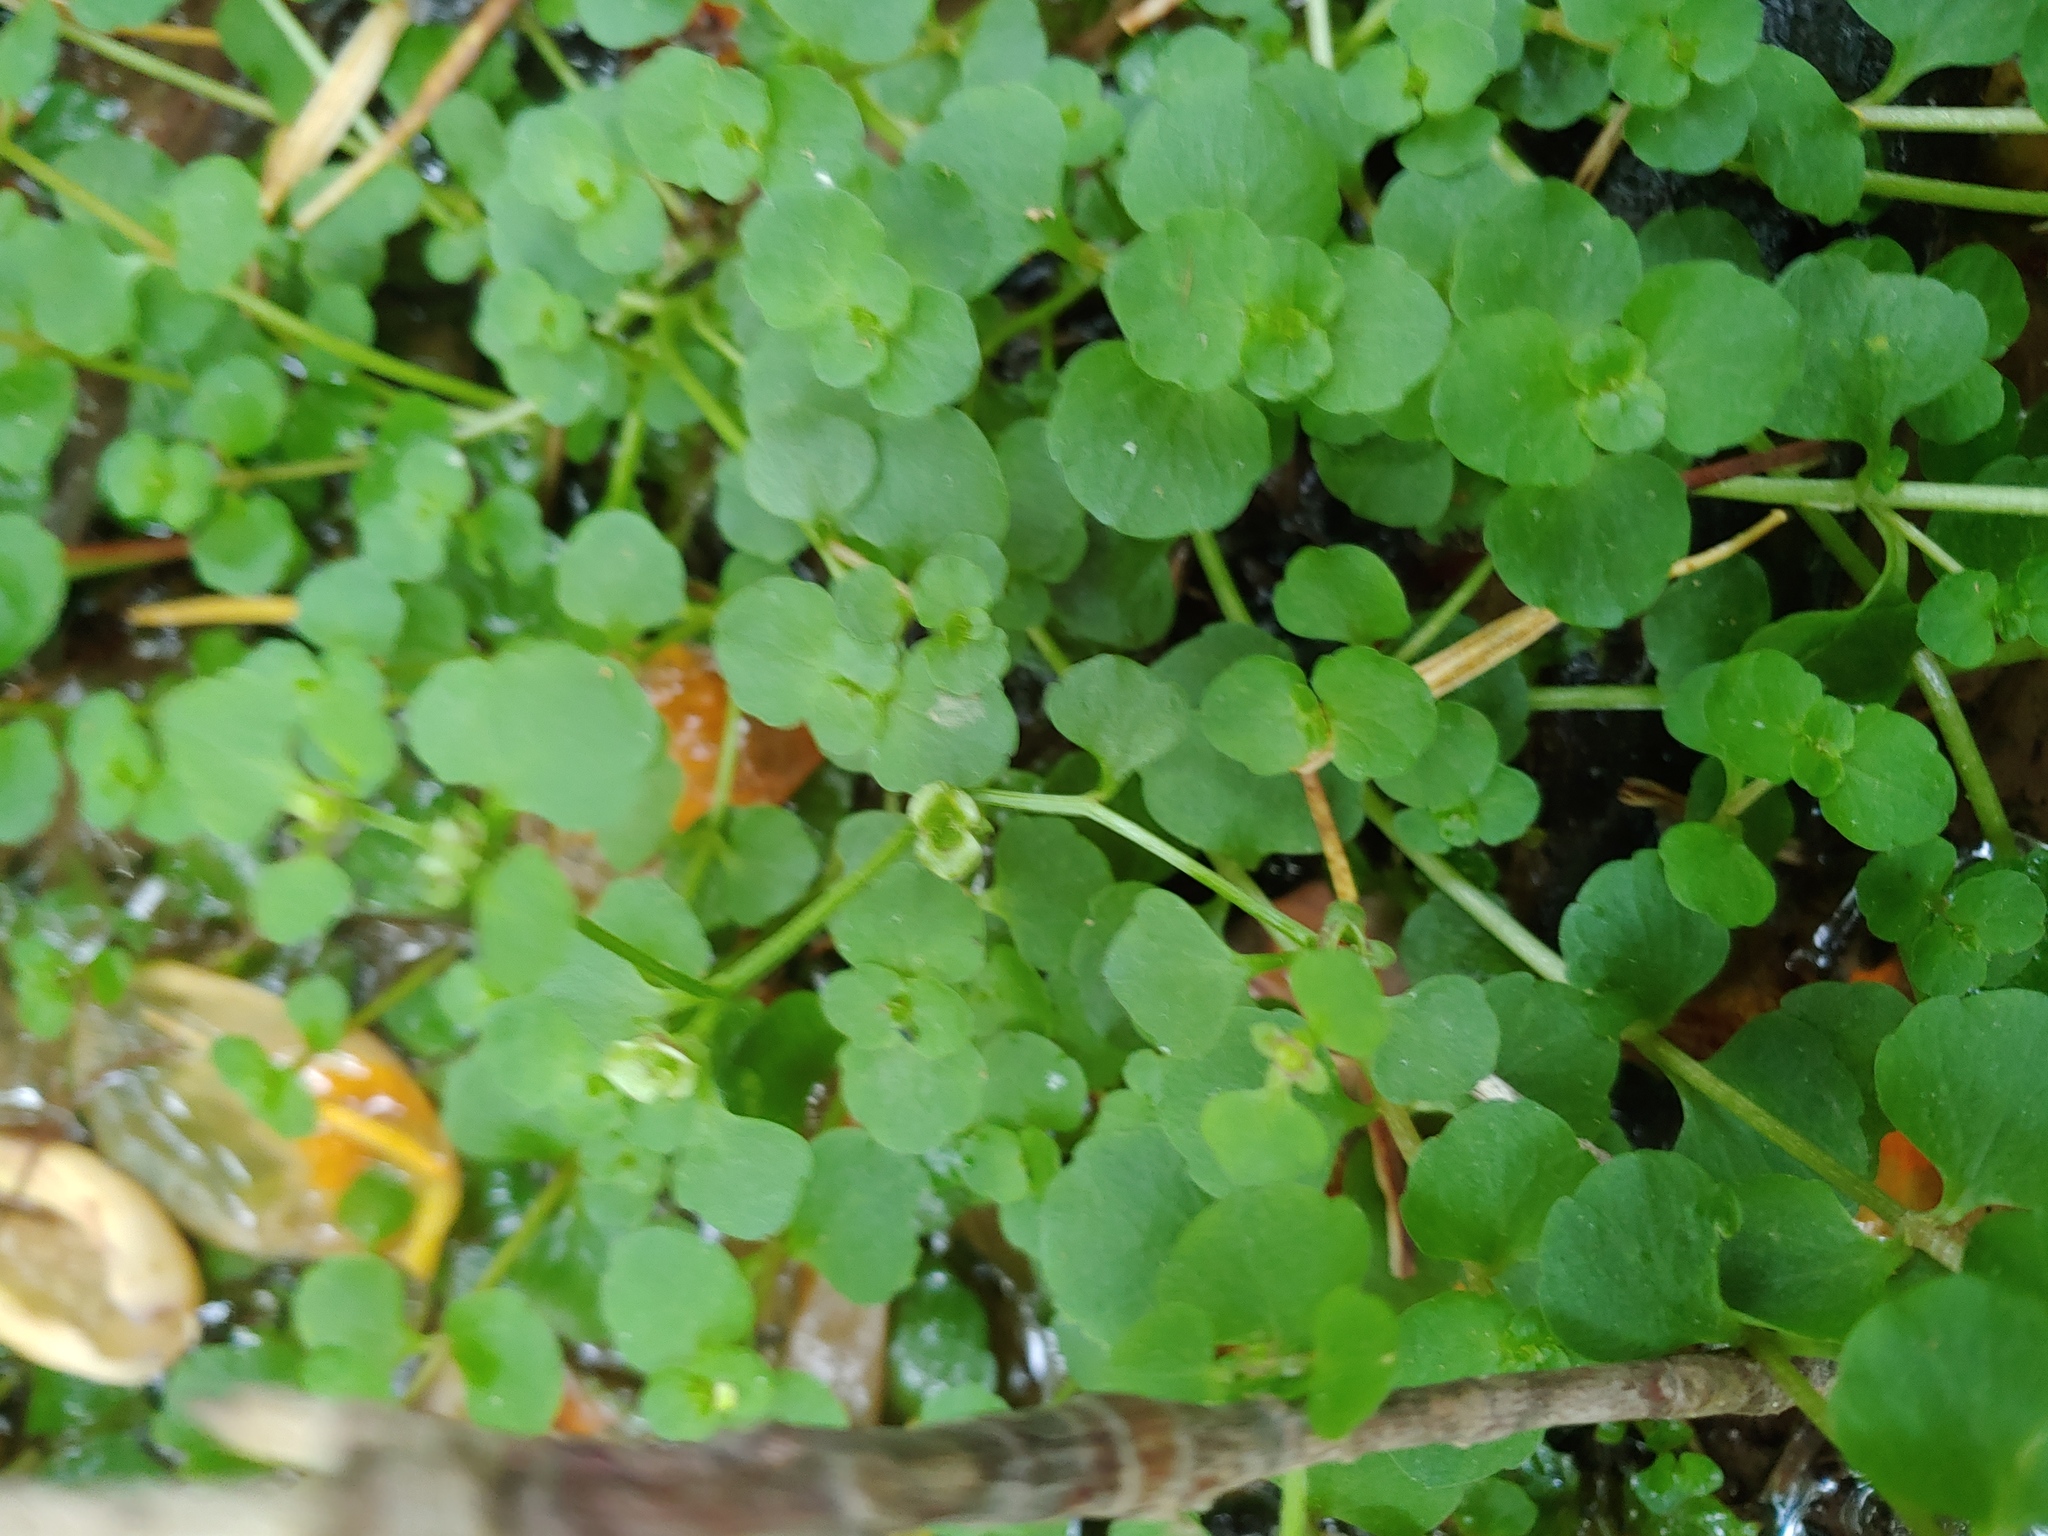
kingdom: Plantae
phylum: Tracheophyta
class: Magnoliopsida
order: Saxifragales
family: Saxifragaceae
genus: Chrysosplenium
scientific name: Chrysosplenium americanum
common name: American golden-saxifrage
